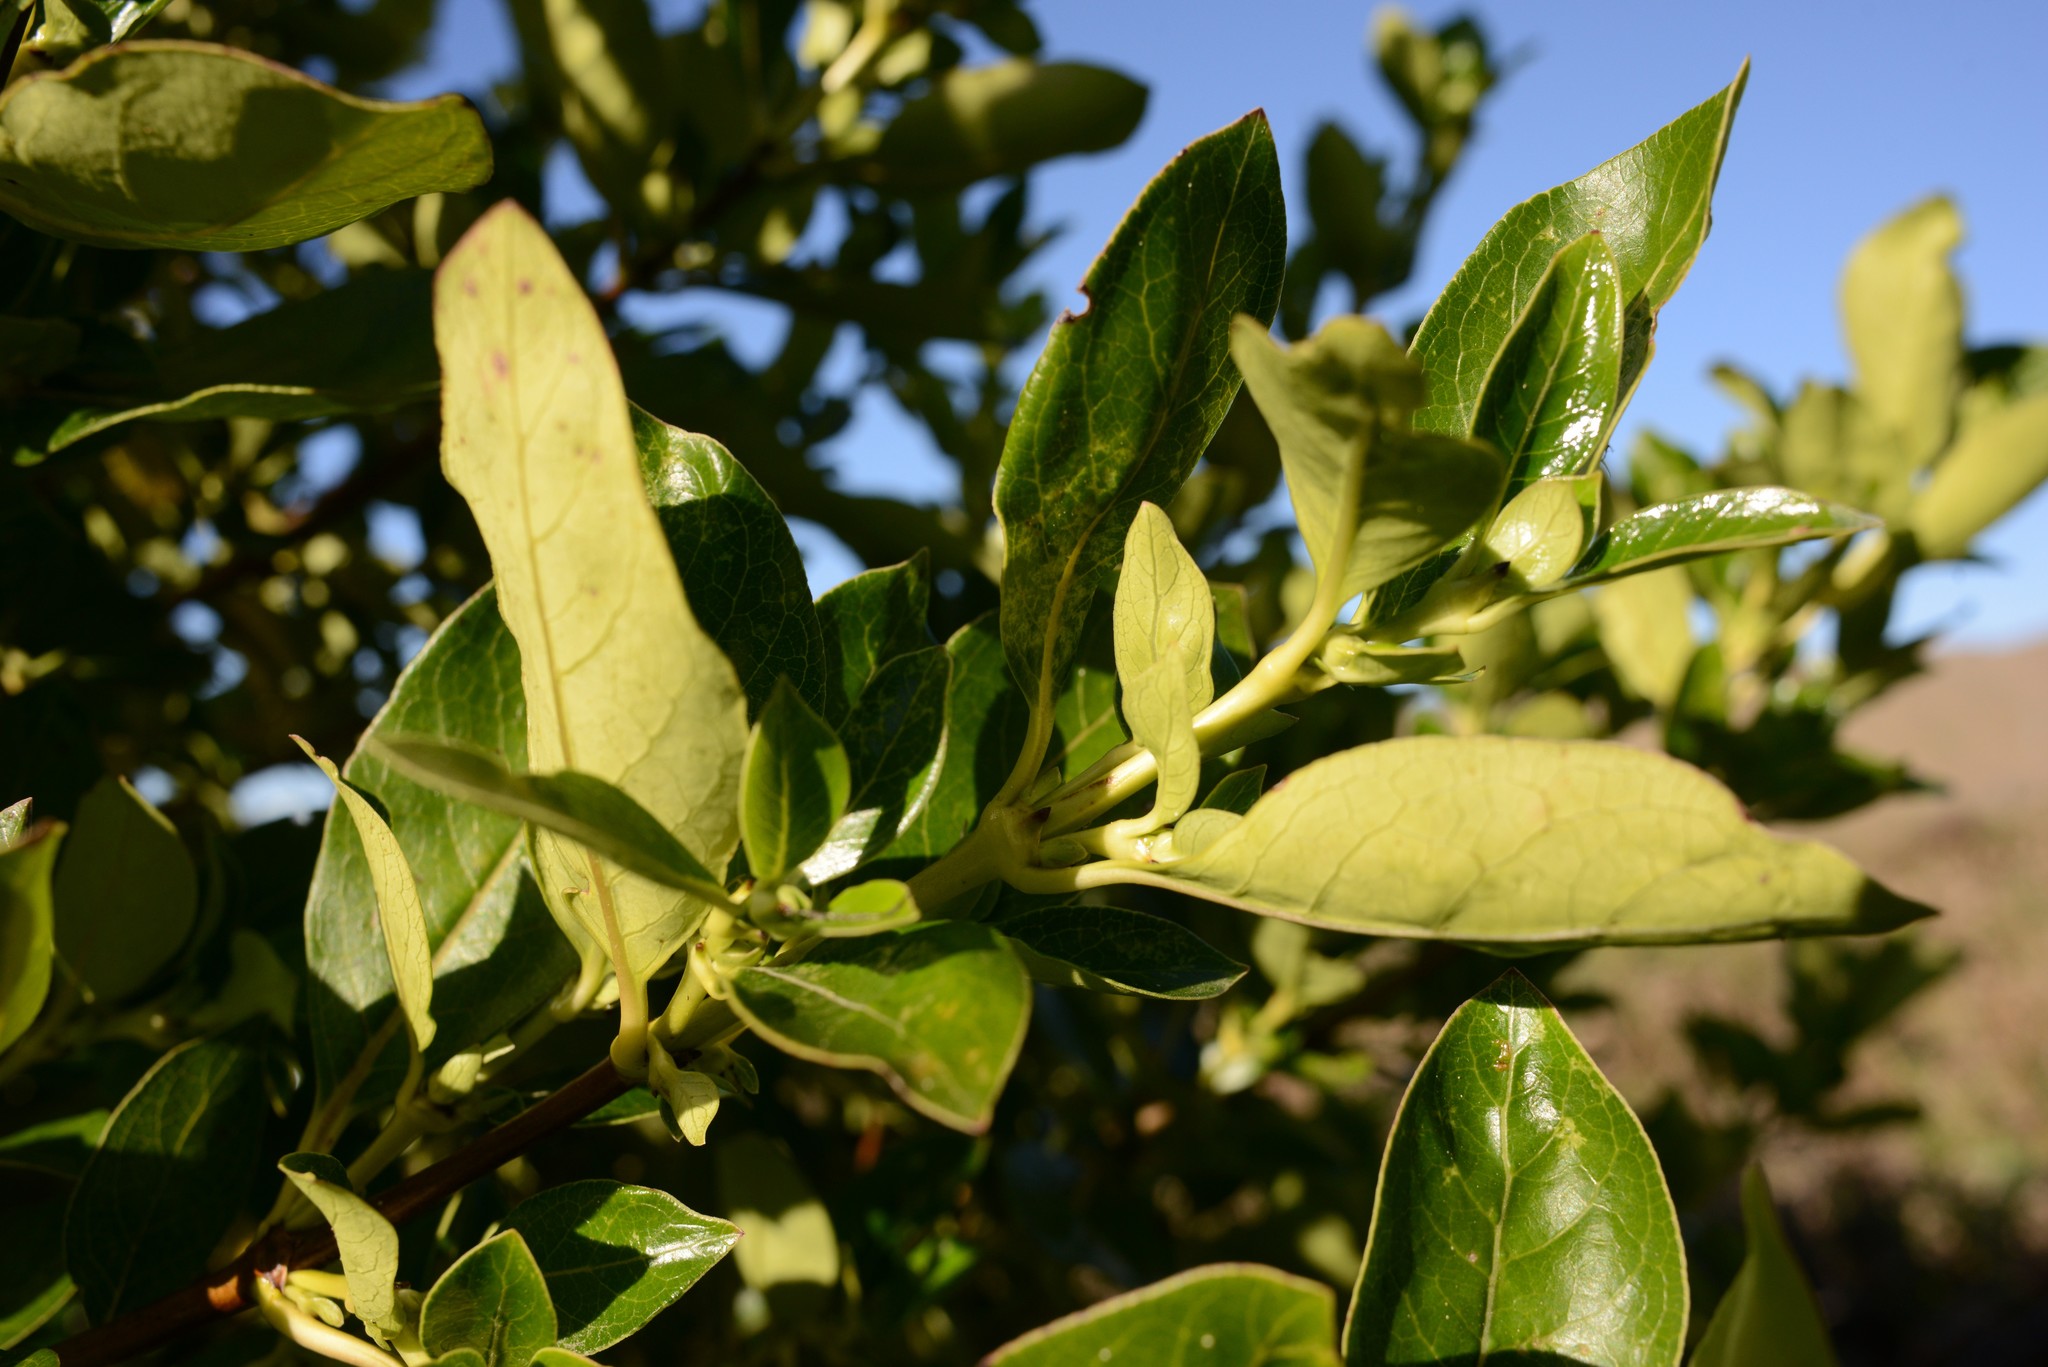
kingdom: Plantae
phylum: Tracheophyta
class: Magnoliopsida
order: Gentianales
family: Rubiaceae
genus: Coprosma
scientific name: Coprosma robusta
